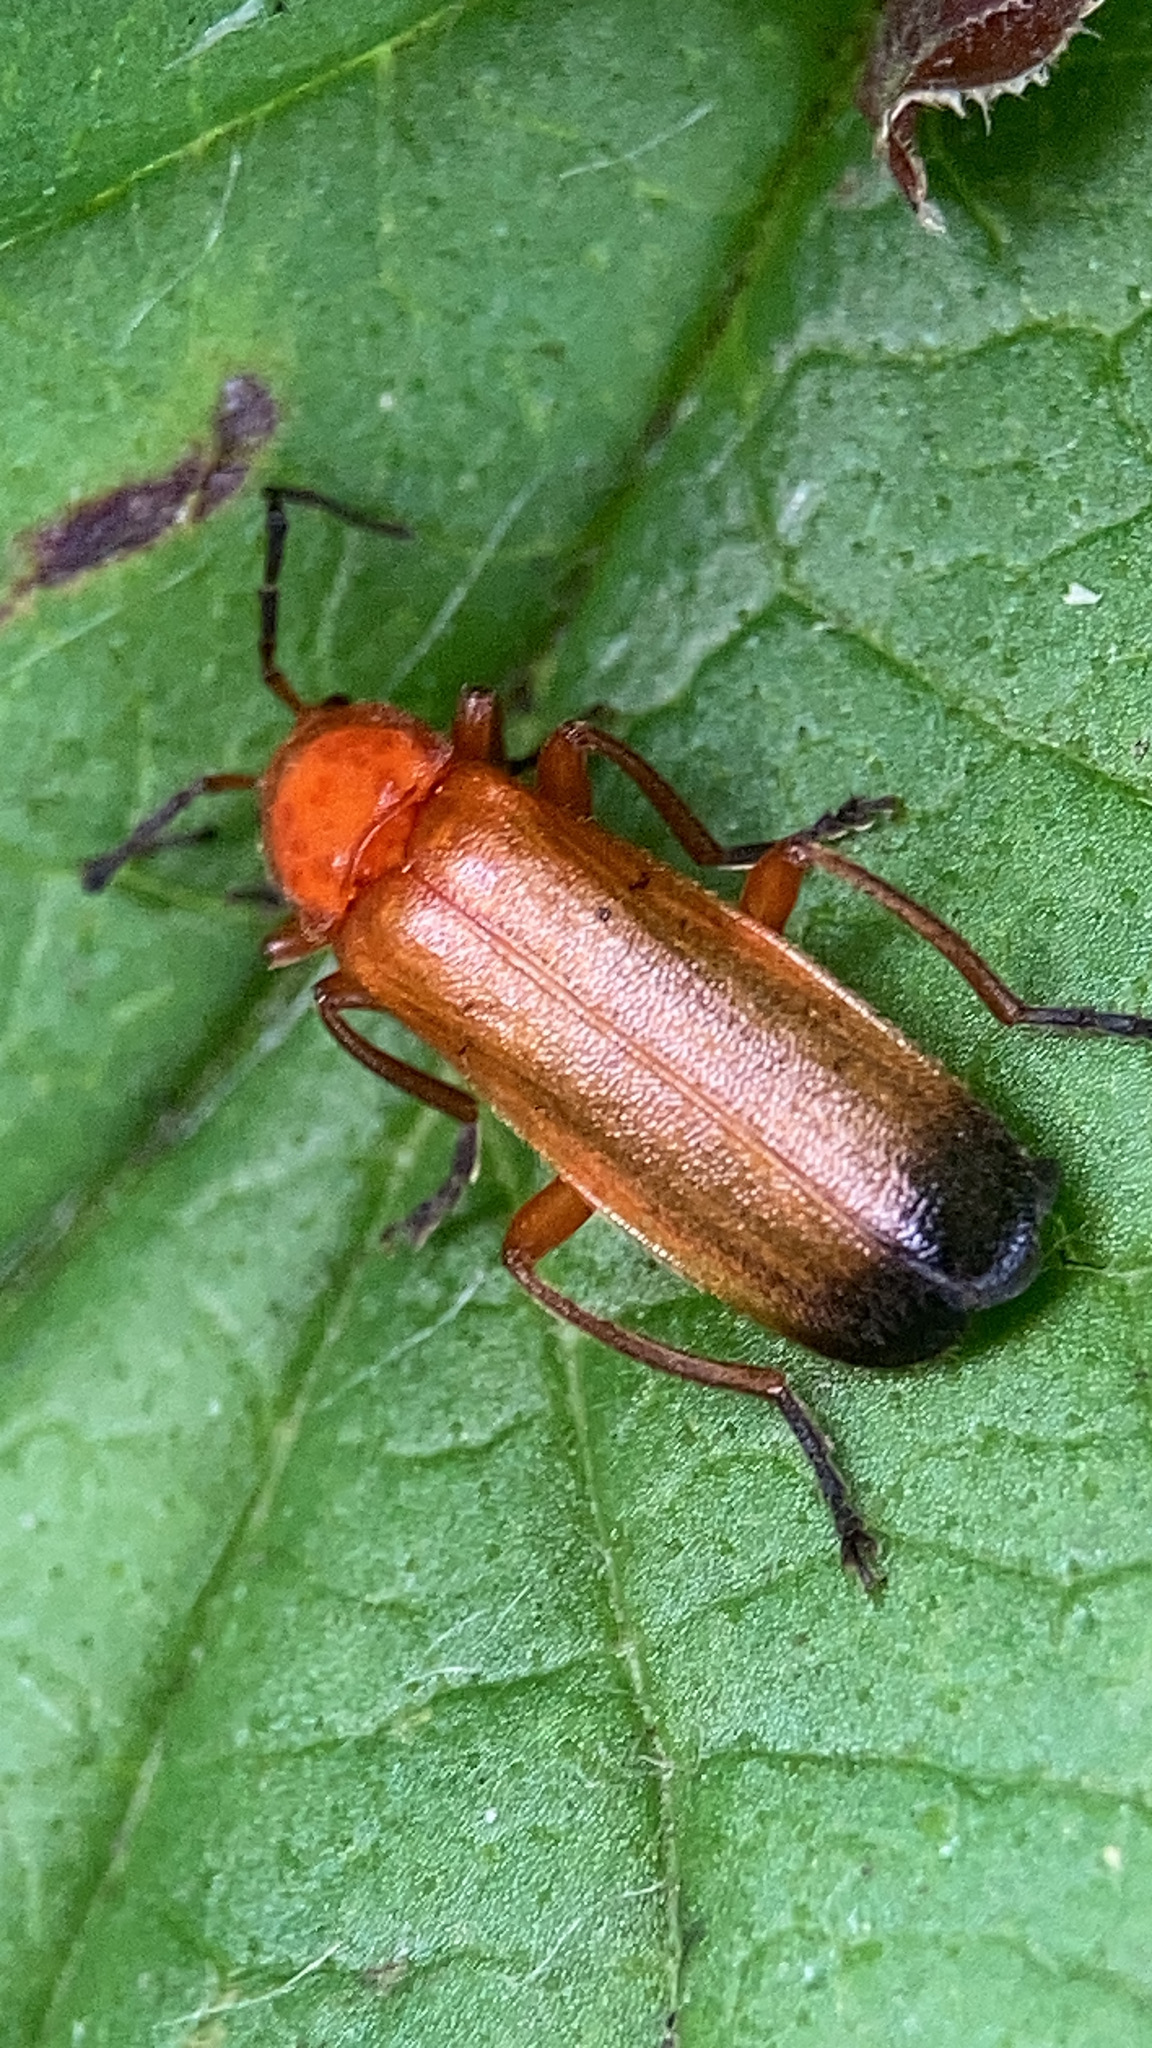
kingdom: Animalia
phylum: Arthropoda
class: Insecta
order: Coleoptera
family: Cantharidae
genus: Rhagonycha
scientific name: Rhagonycha fulva
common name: Common red soldier beetle
